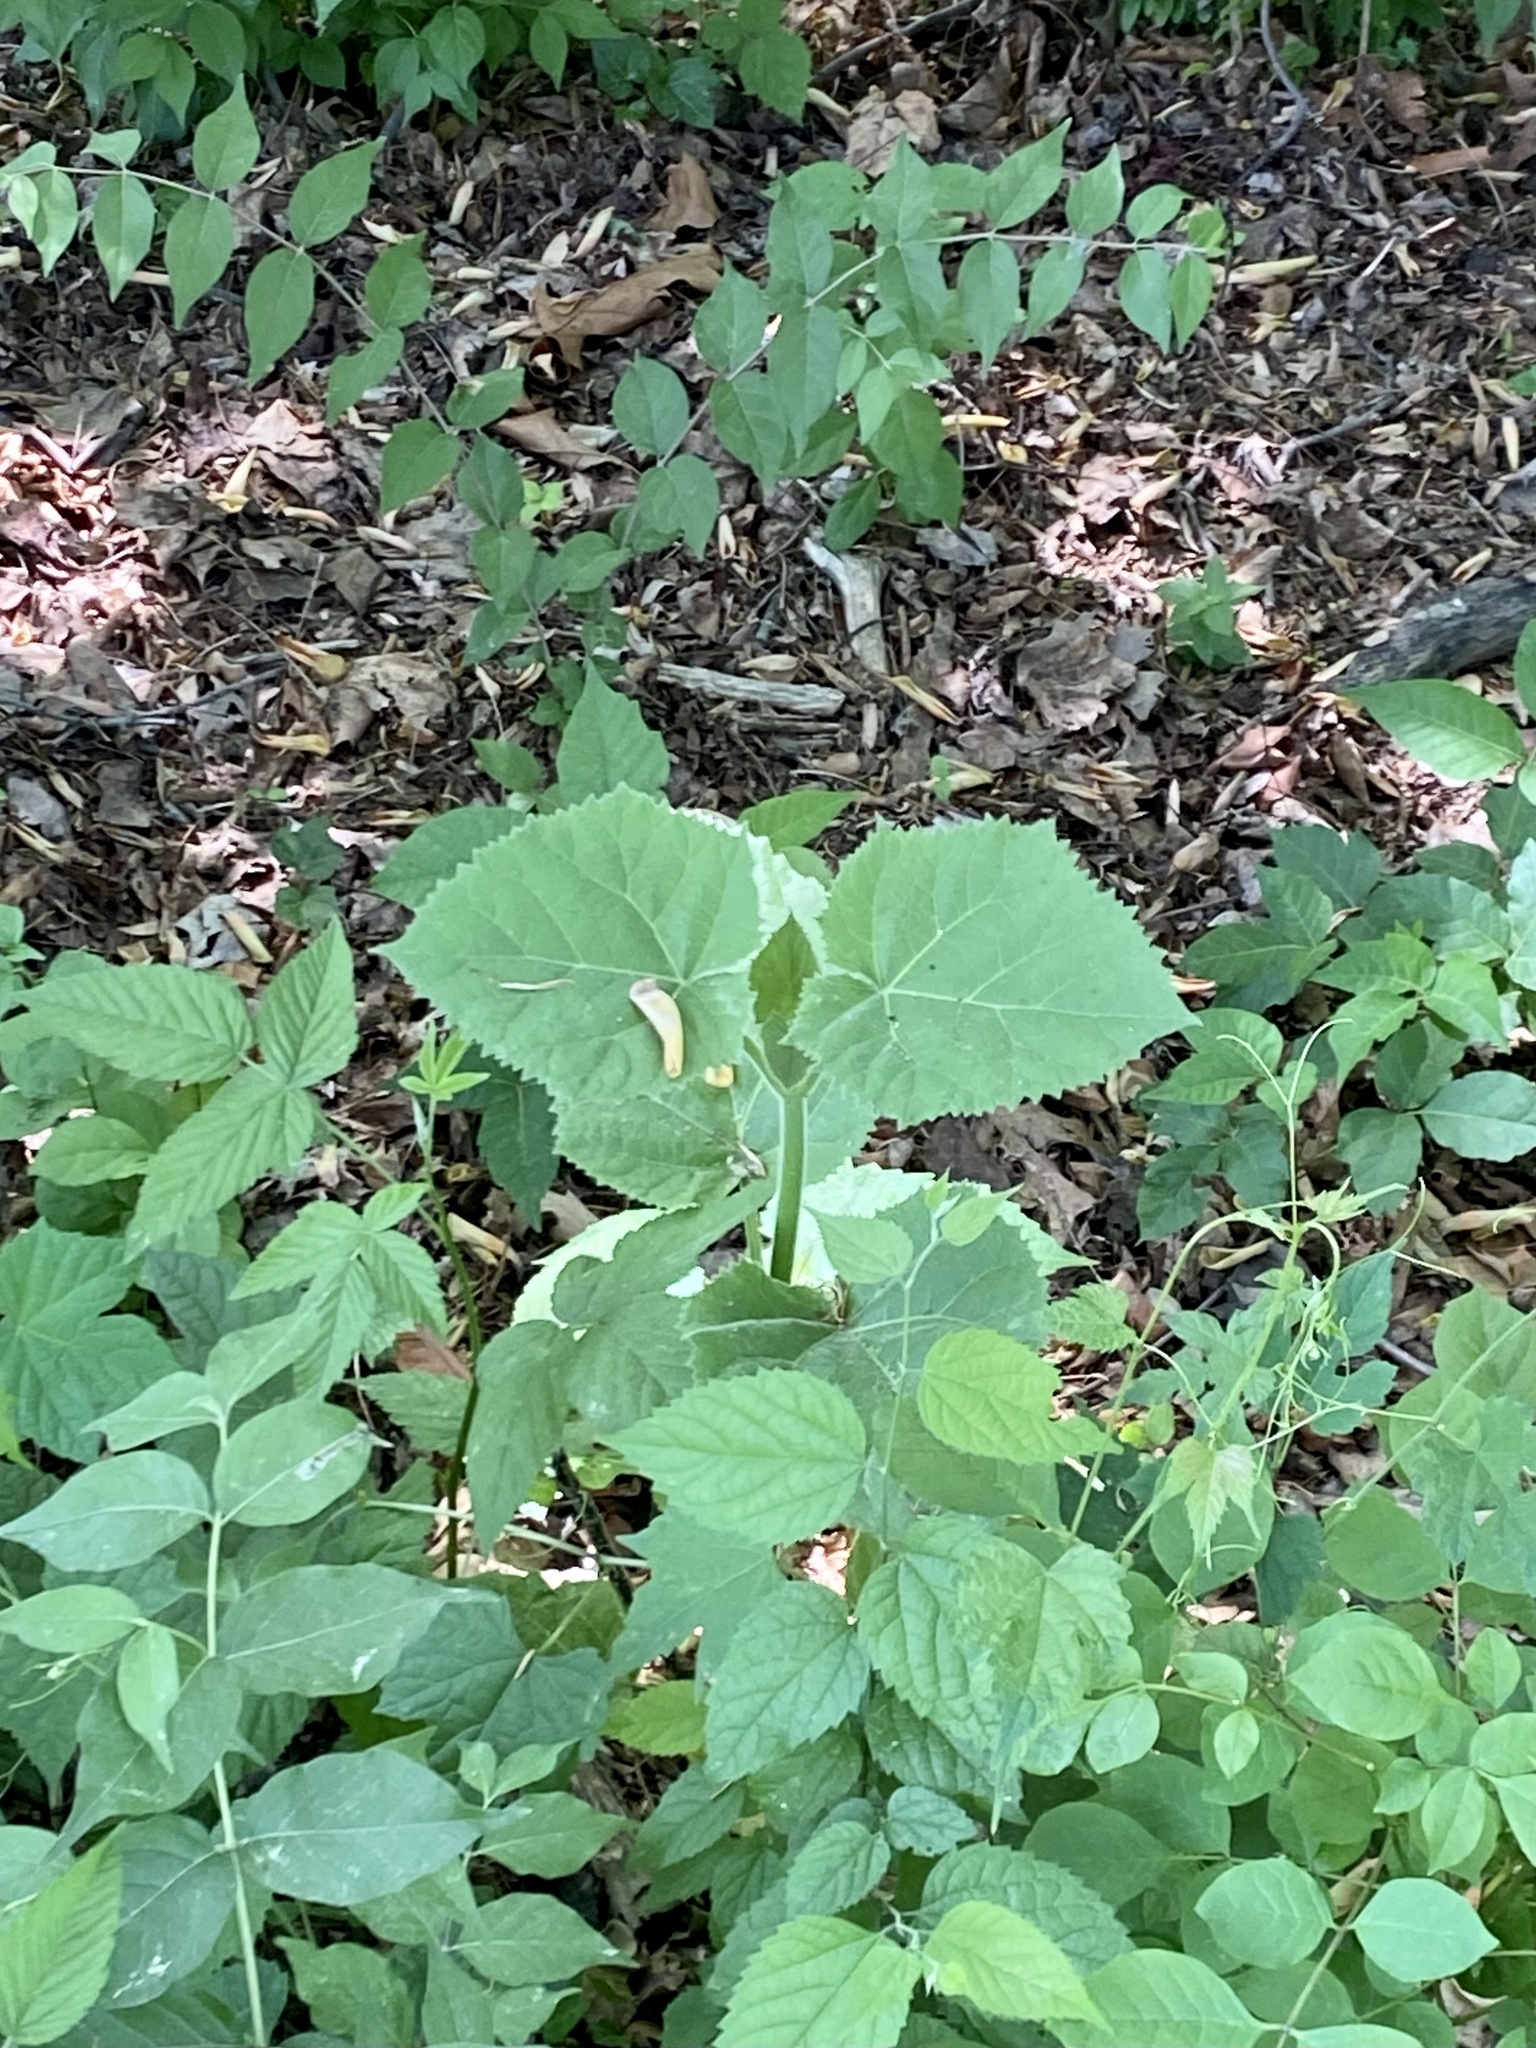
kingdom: Plantae
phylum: Tracheophyta
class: Magnoliopsida
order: Lamiales
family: Paulowniaceae
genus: Paulownia
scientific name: Paulownia tomentosa
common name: Foxglove-tree
